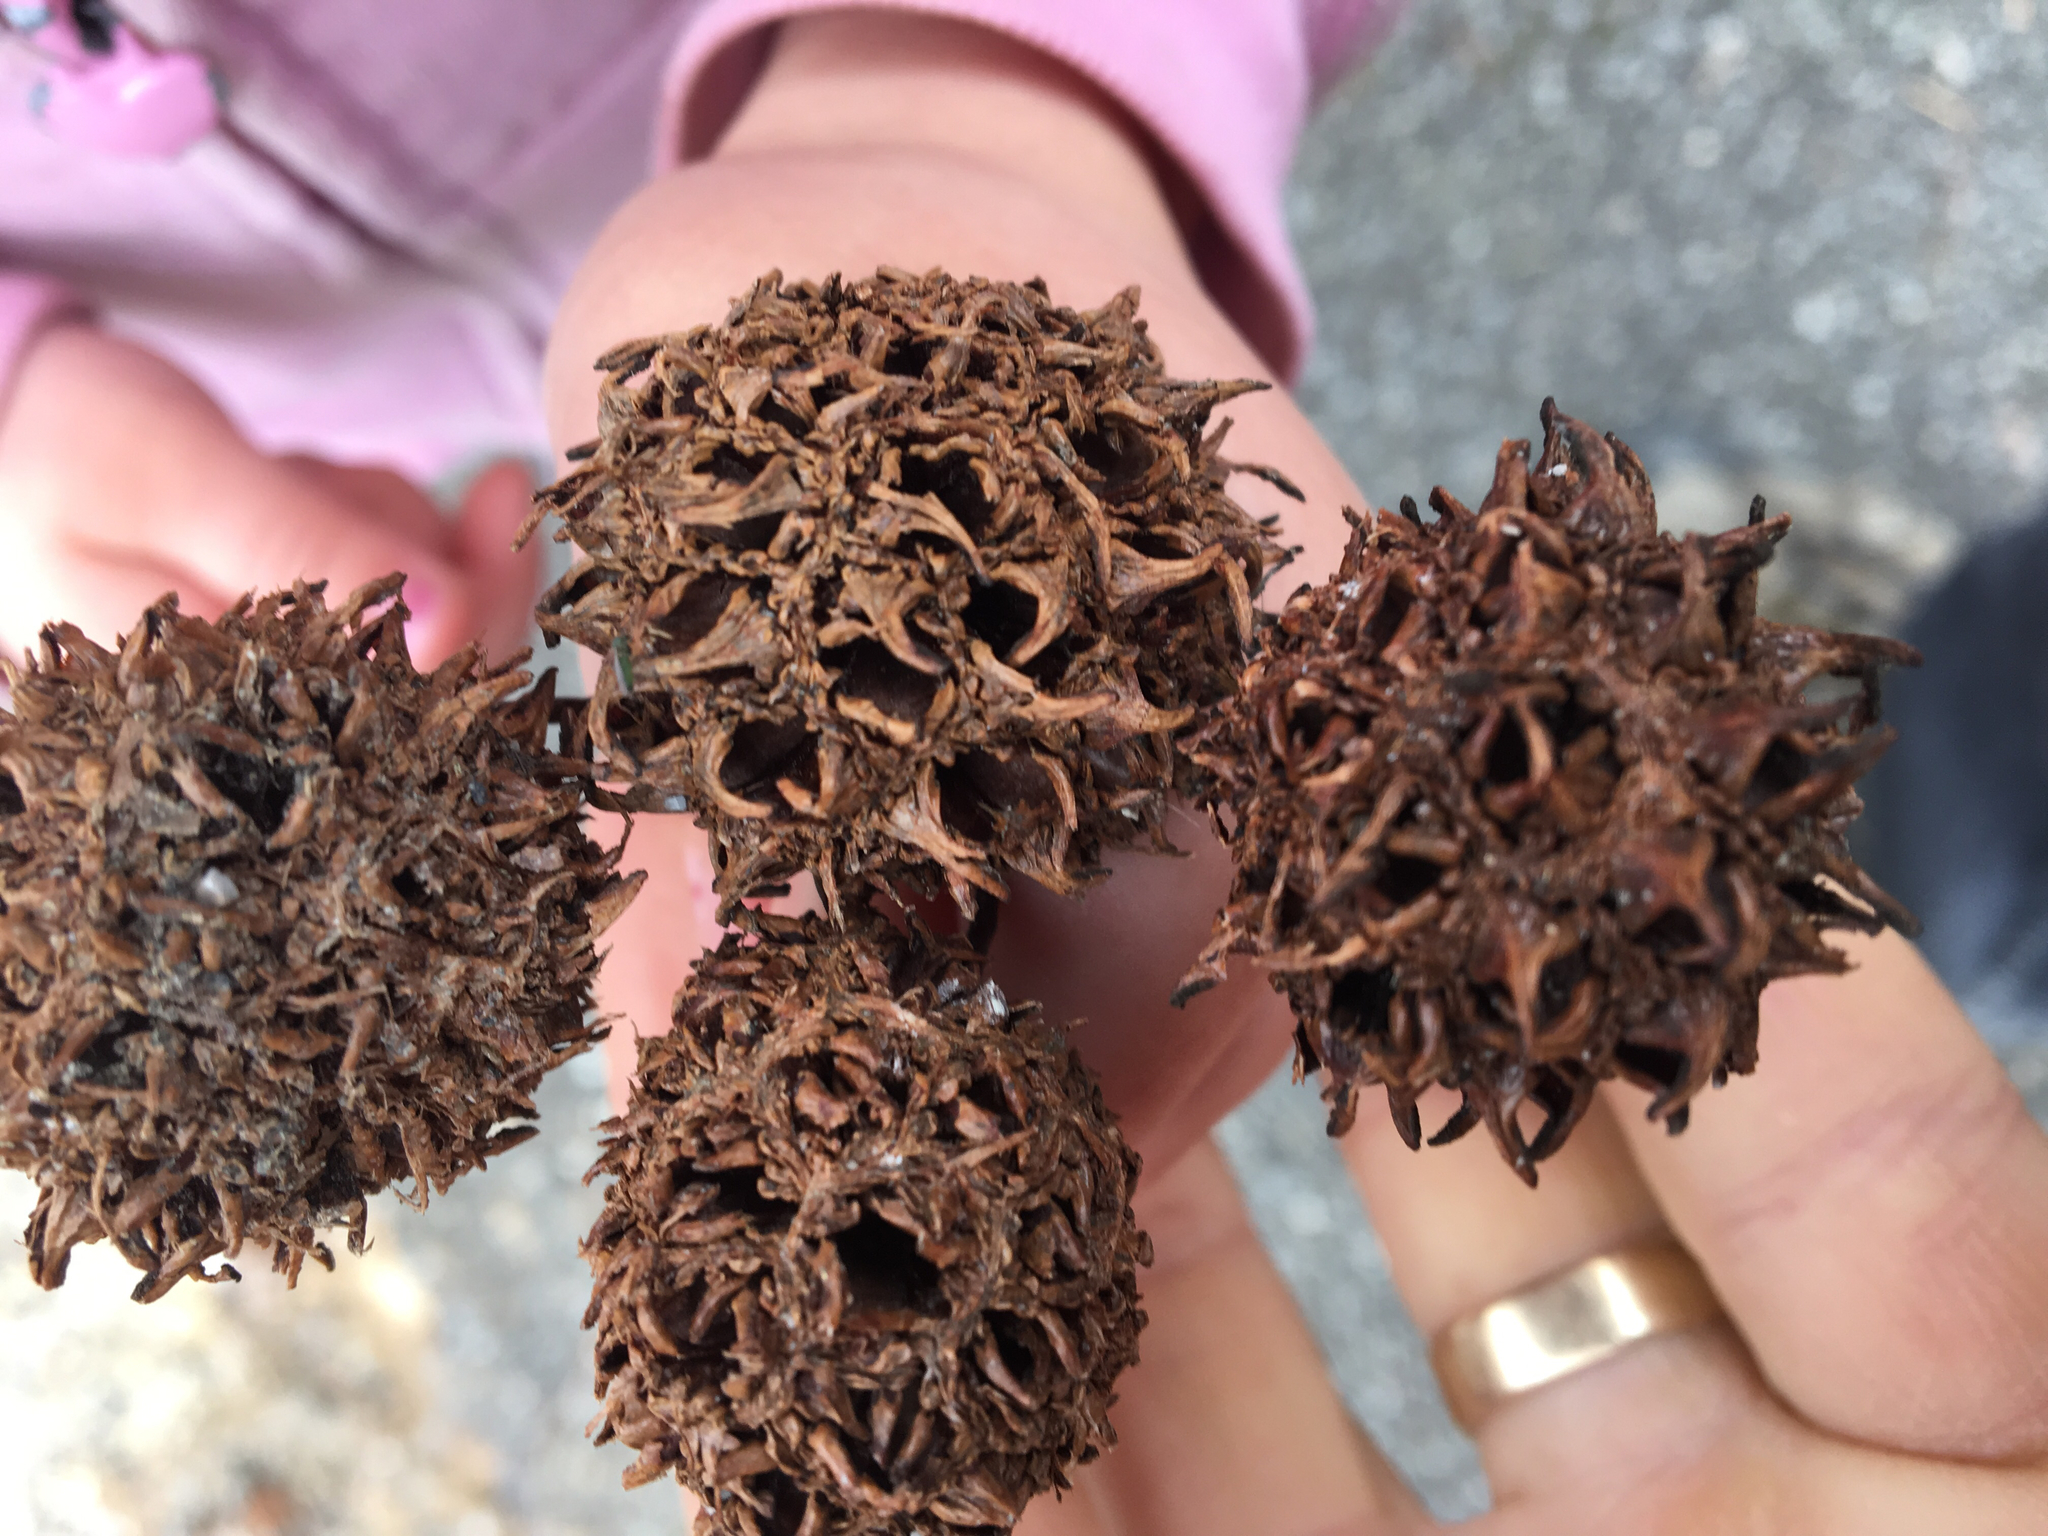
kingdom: Plantae
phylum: Tracheophyta
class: Magnoliopsida
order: Saxifragales
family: Altingiaceae
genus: Liquidambar
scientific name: Liquidambar styraciflua
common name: Sweet gum
